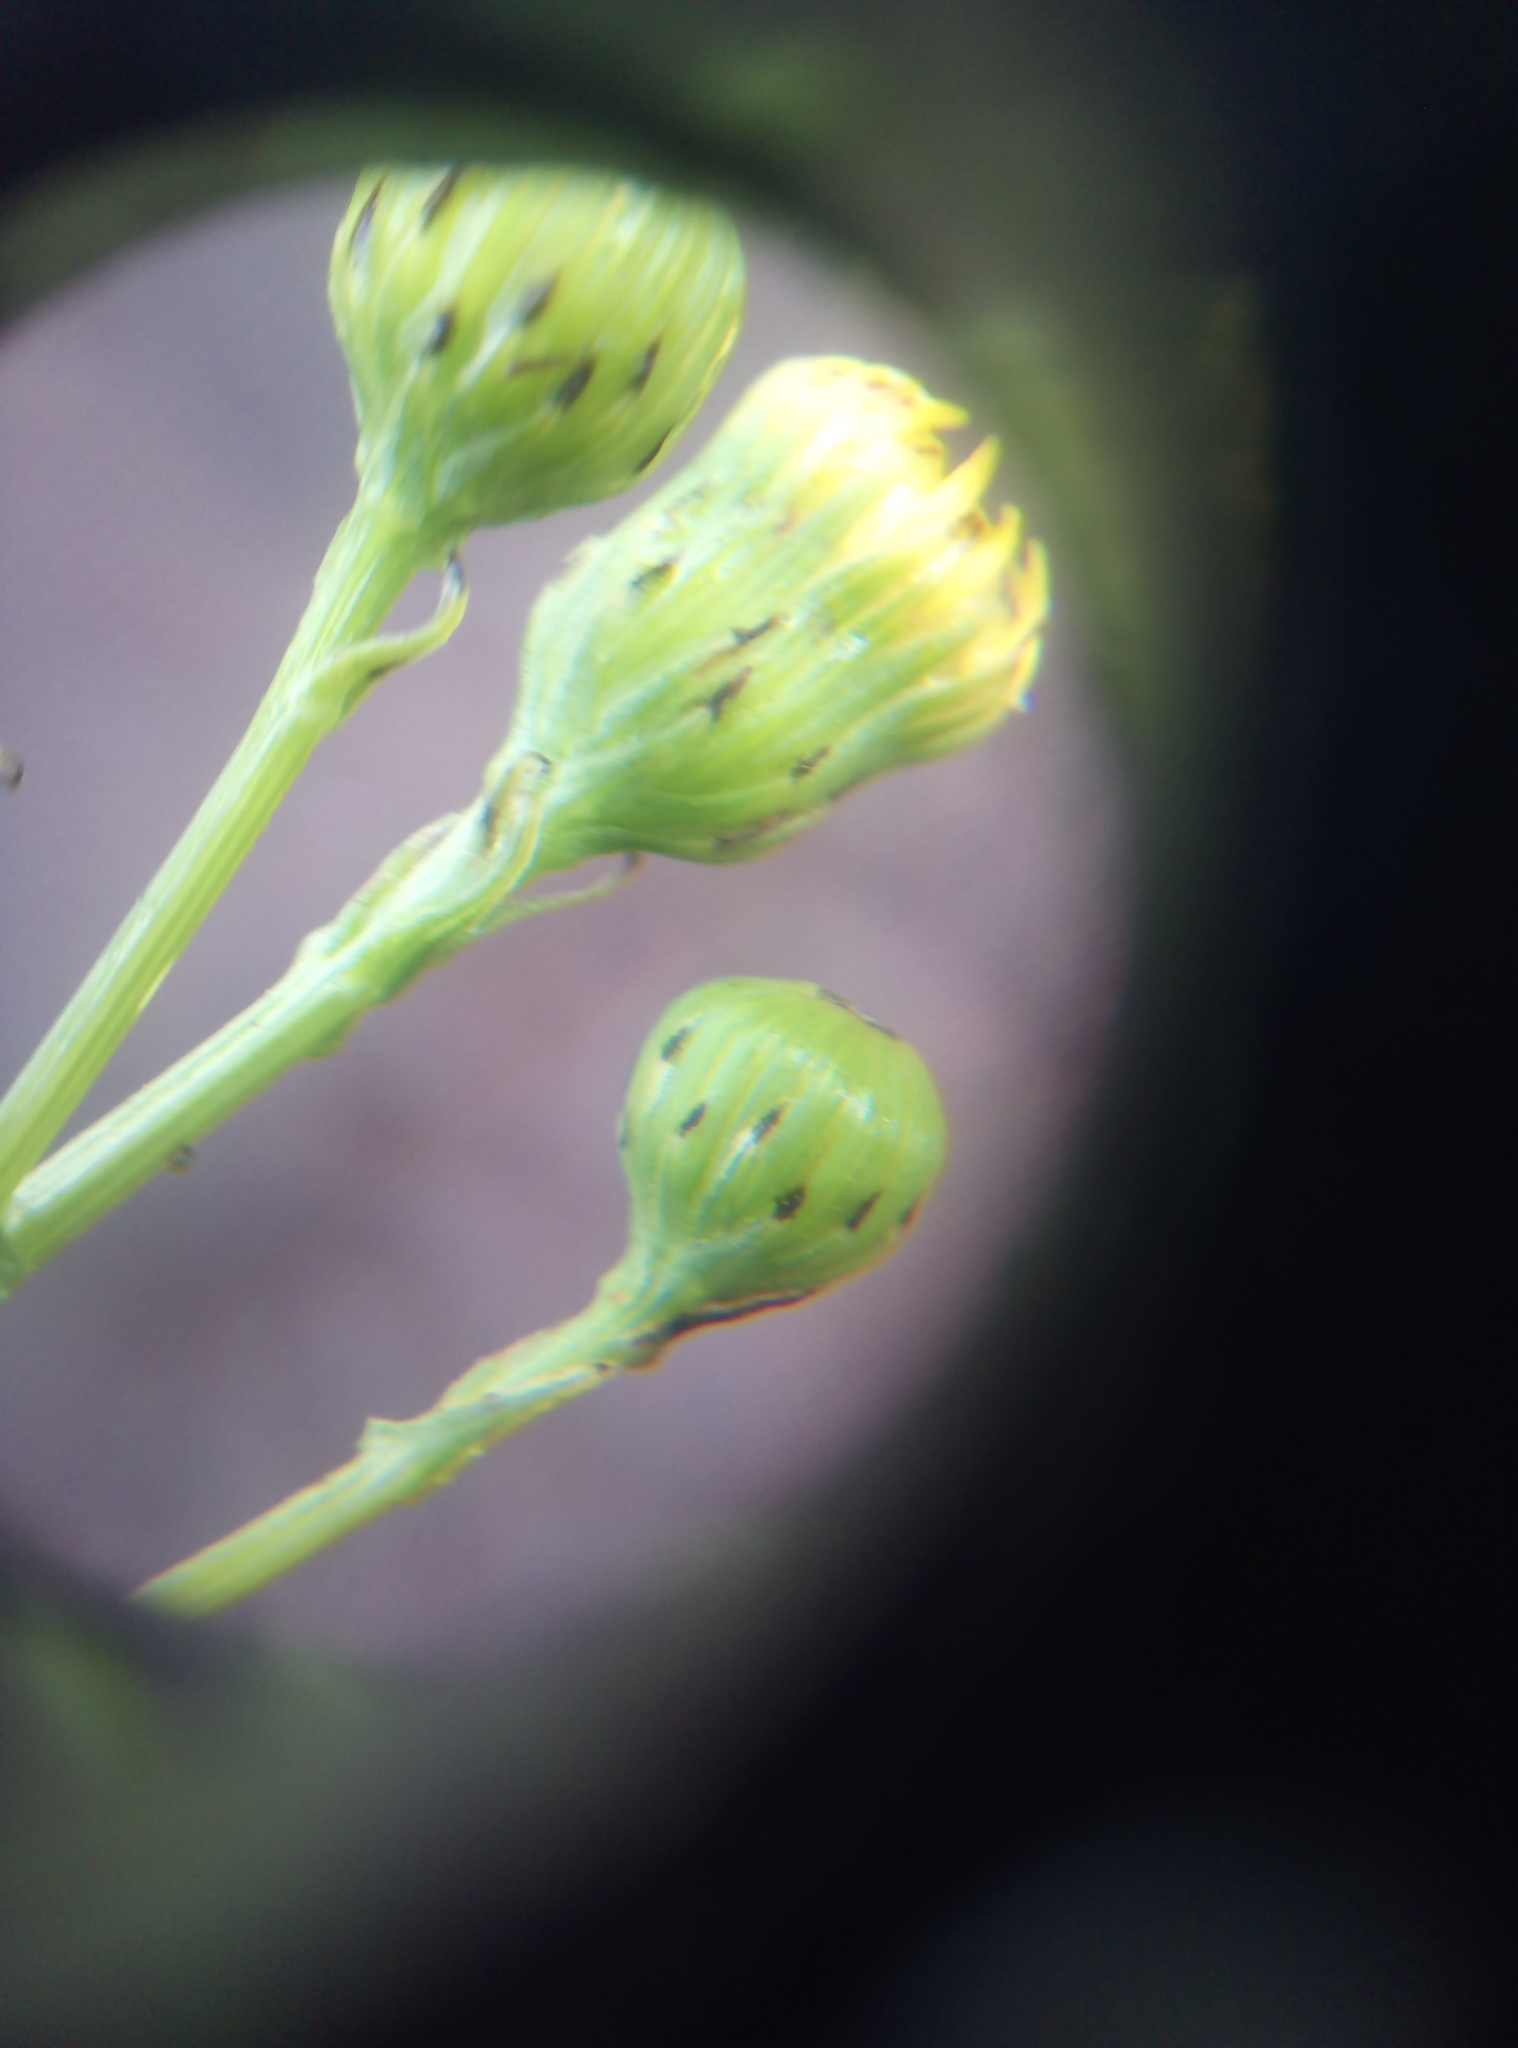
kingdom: Plantae
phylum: Tracheophyta
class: Magnoliopsida
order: Asterales
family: Asteraceae
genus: Senecio
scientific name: Senecio inaequidens
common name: Narrow-leaved ragwort
